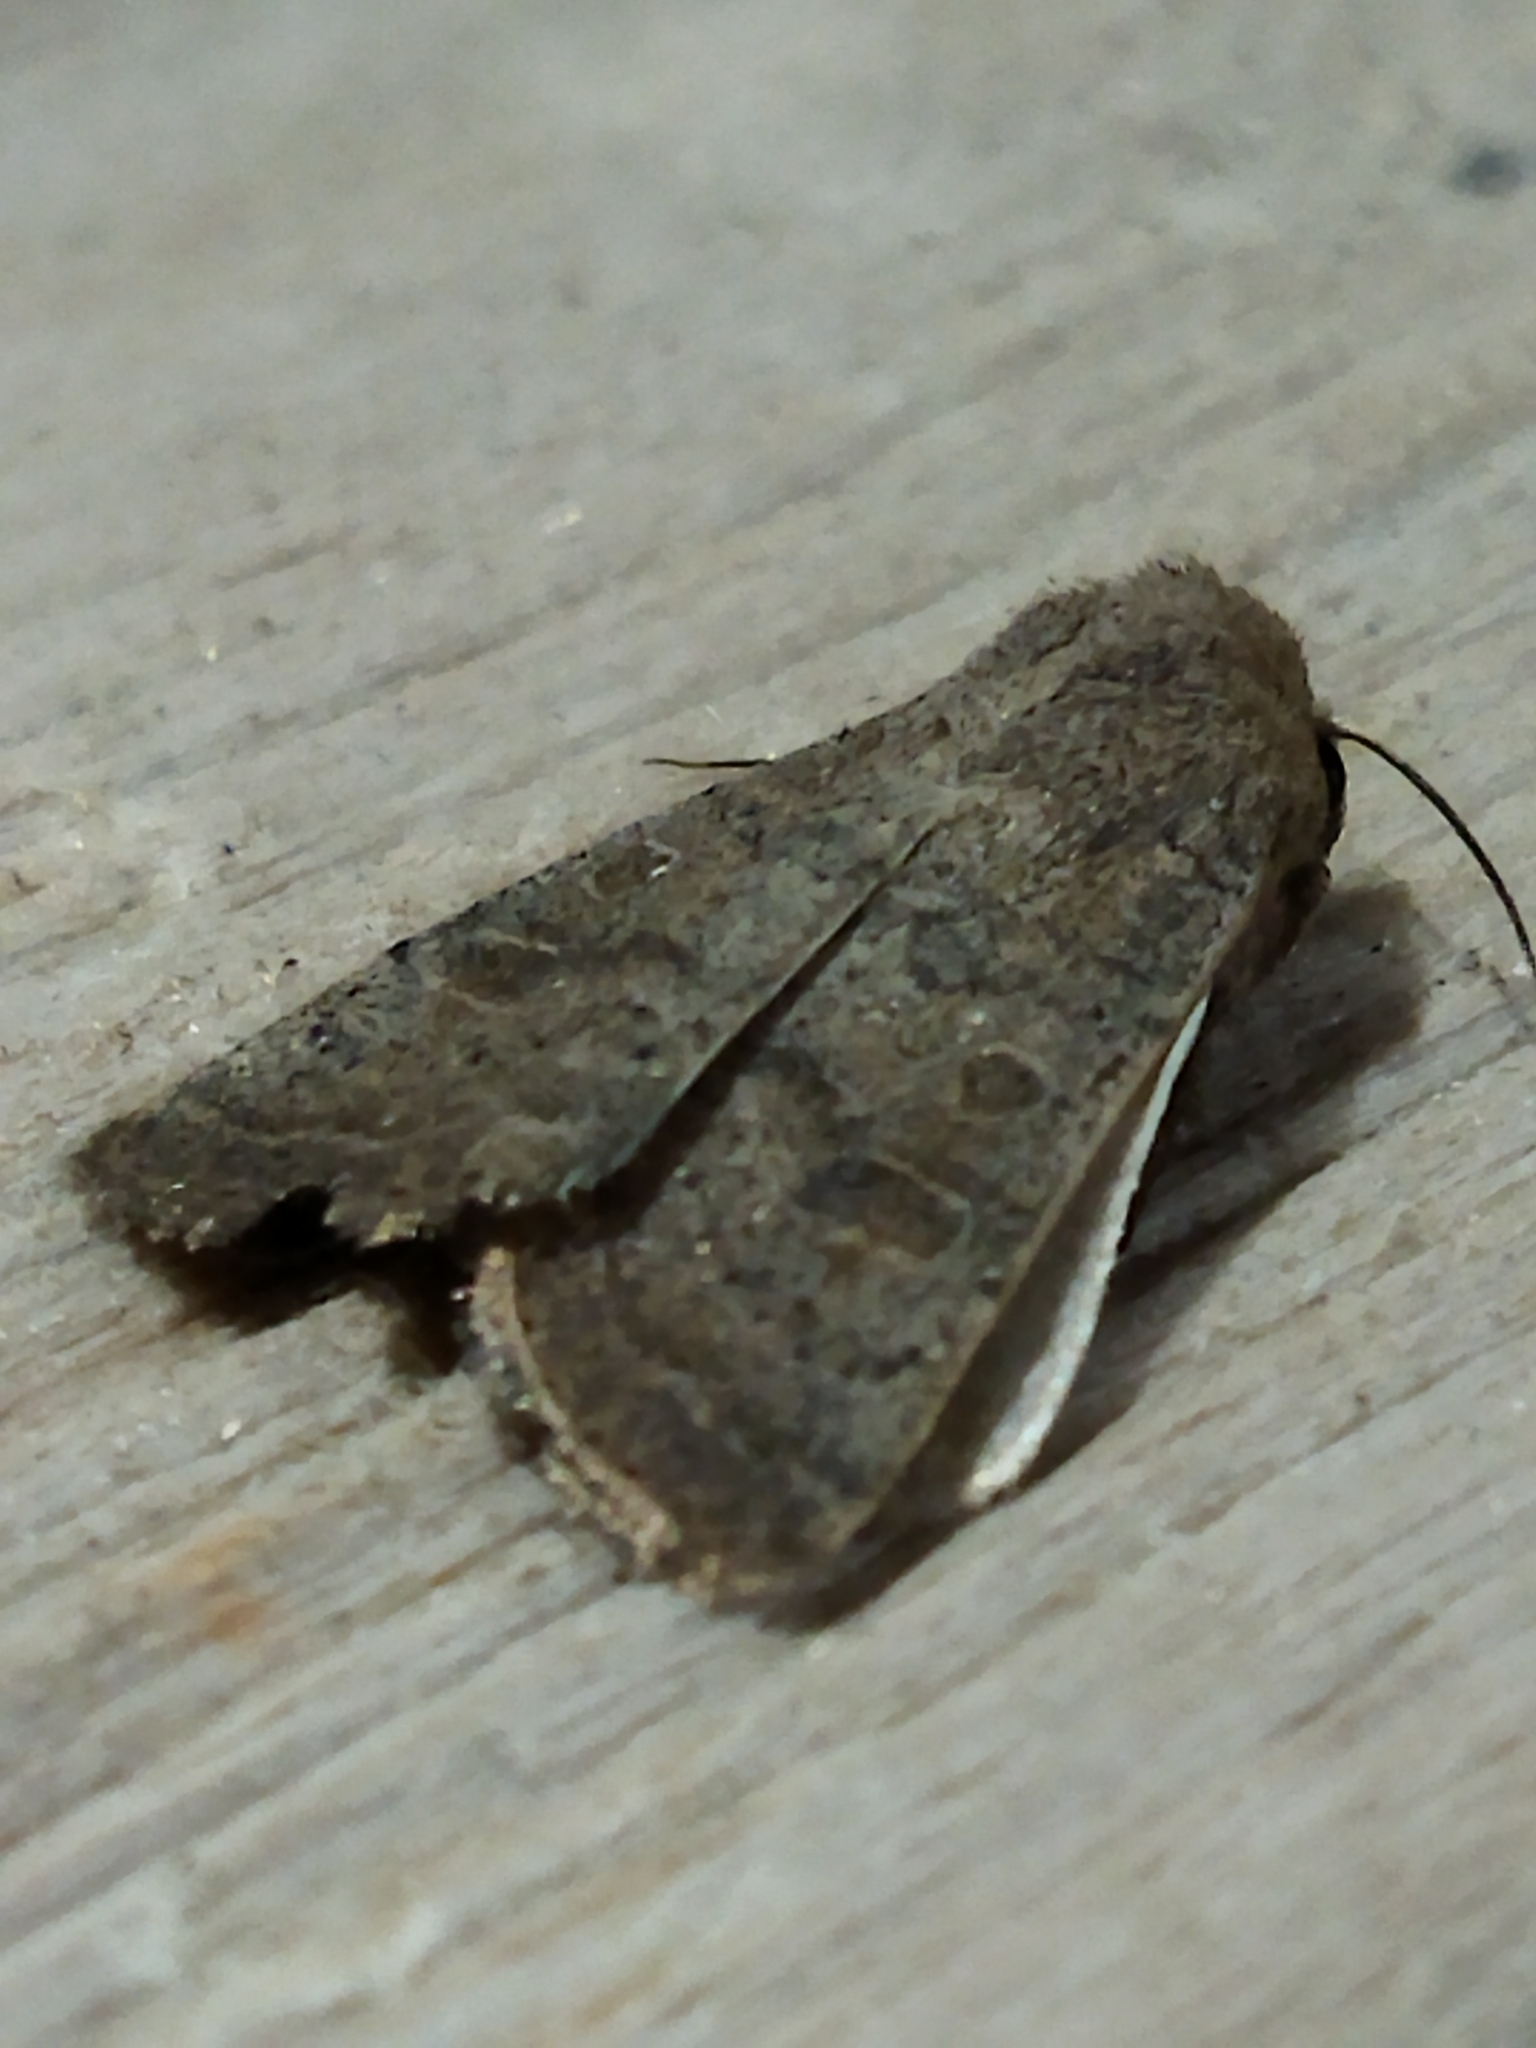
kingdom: Animalia
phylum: Arthropoda
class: Insecta
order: Lepidoptera
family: Noctuidae
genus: Hoplodrina
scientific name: Hoplodrina ambigua
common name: Vine's rustic
